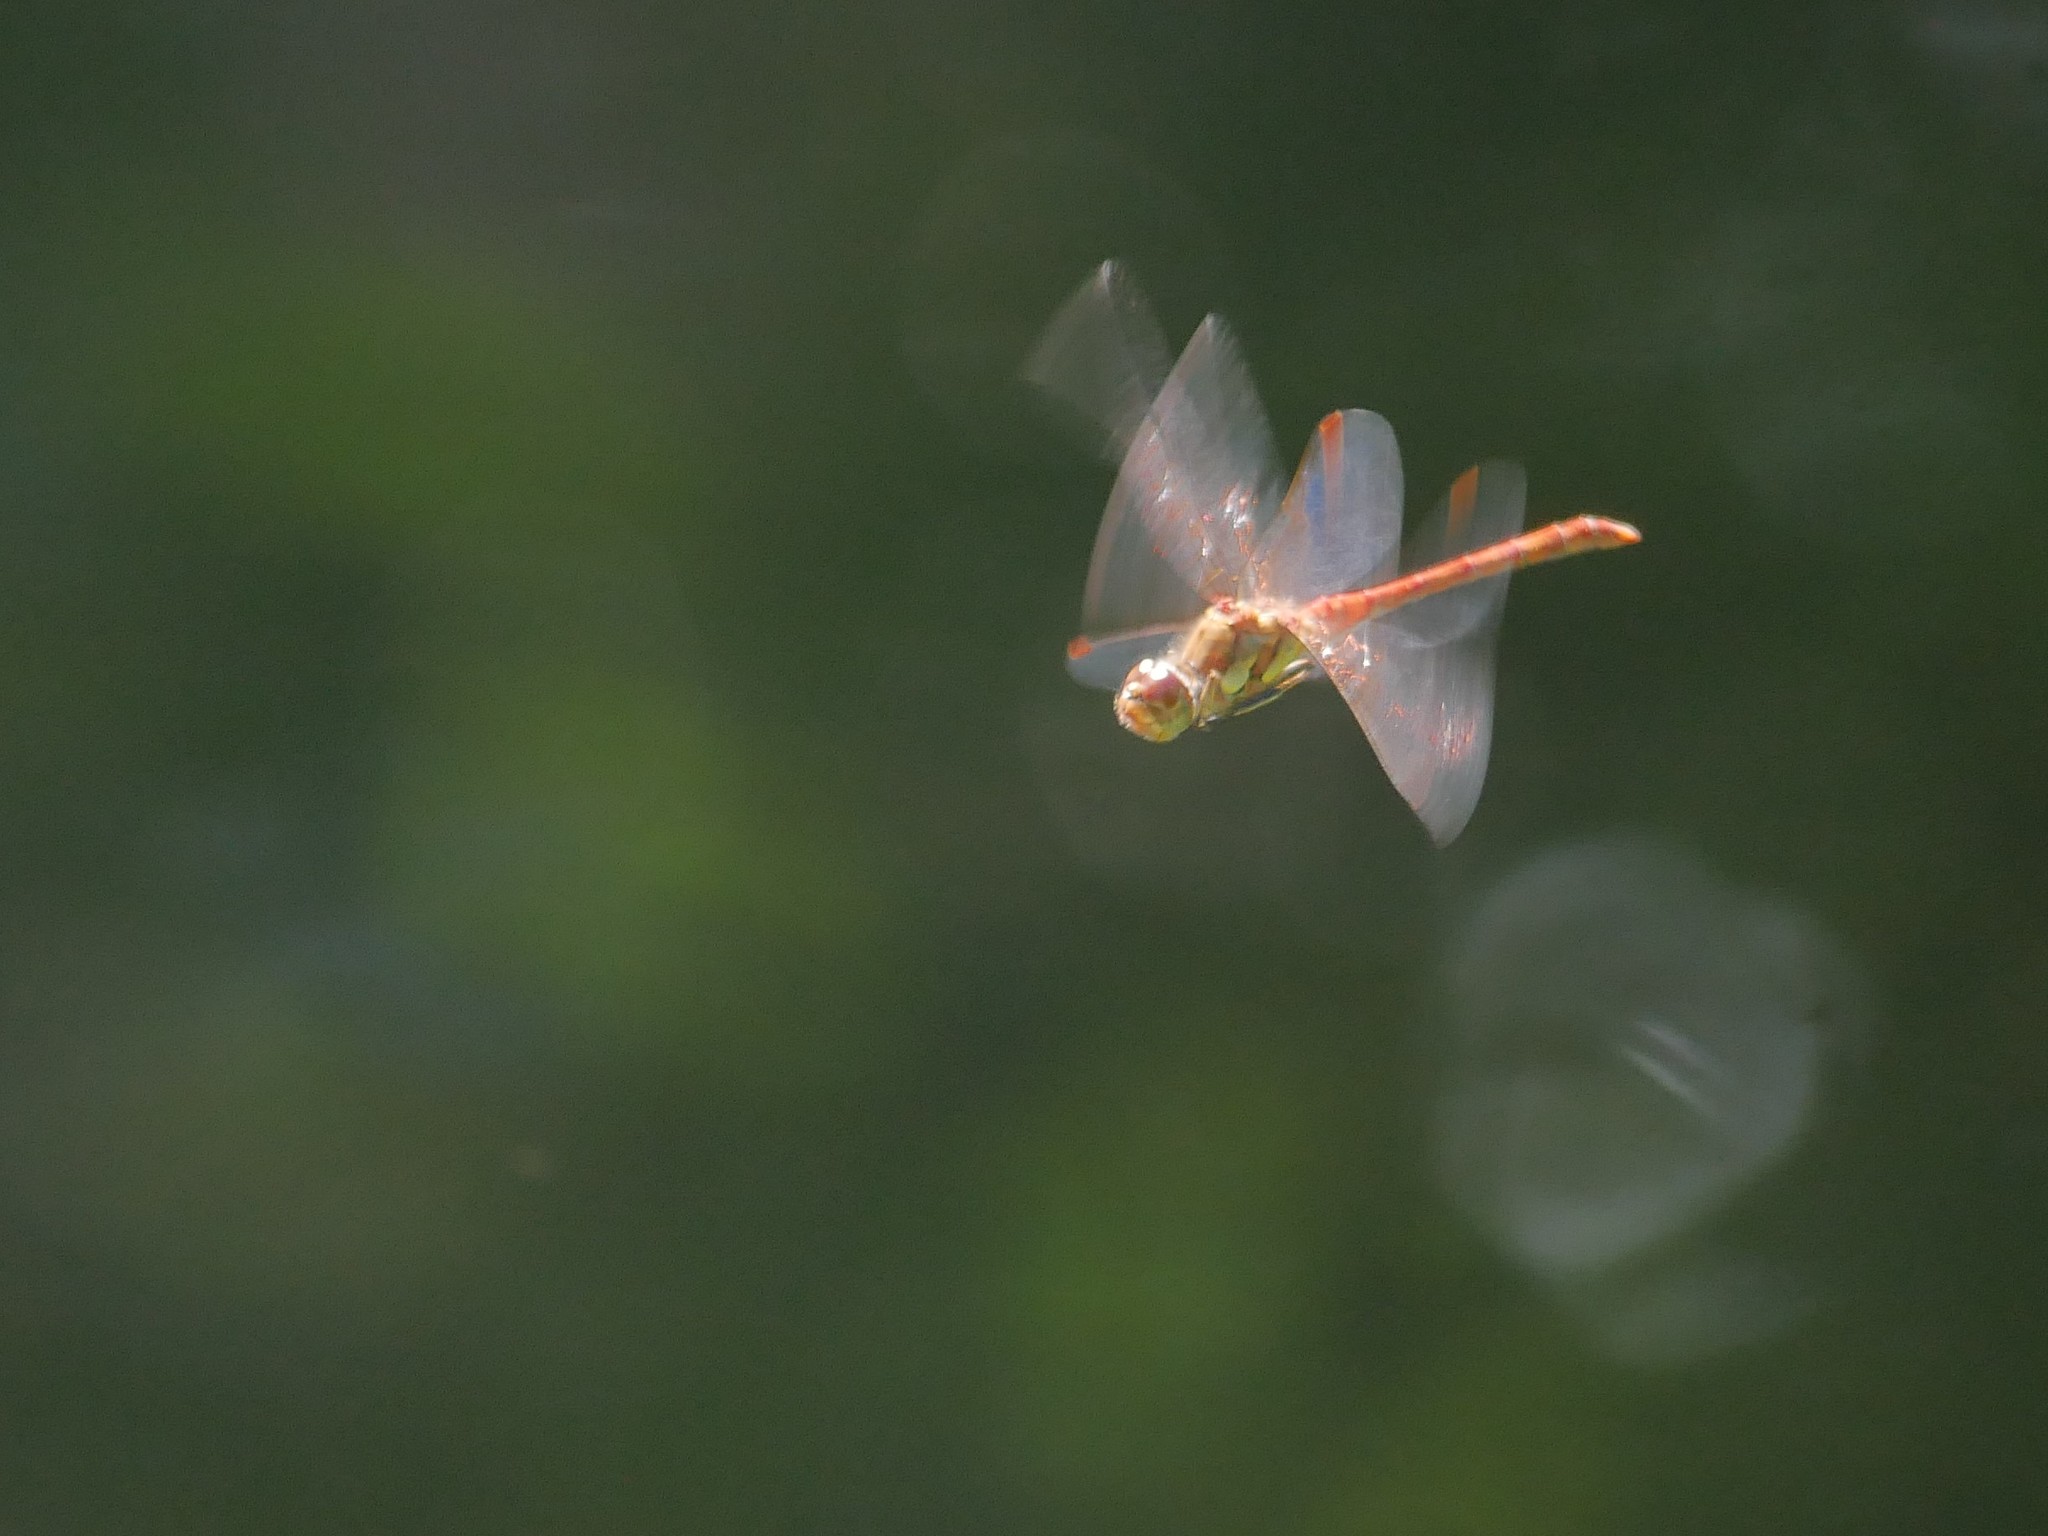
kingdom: Animalia
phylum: Arthropoda
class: Insecta
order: Odonata
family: Libellulidae
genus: Sympetrum
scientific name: Sympetrum striolatum
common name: Common darter
